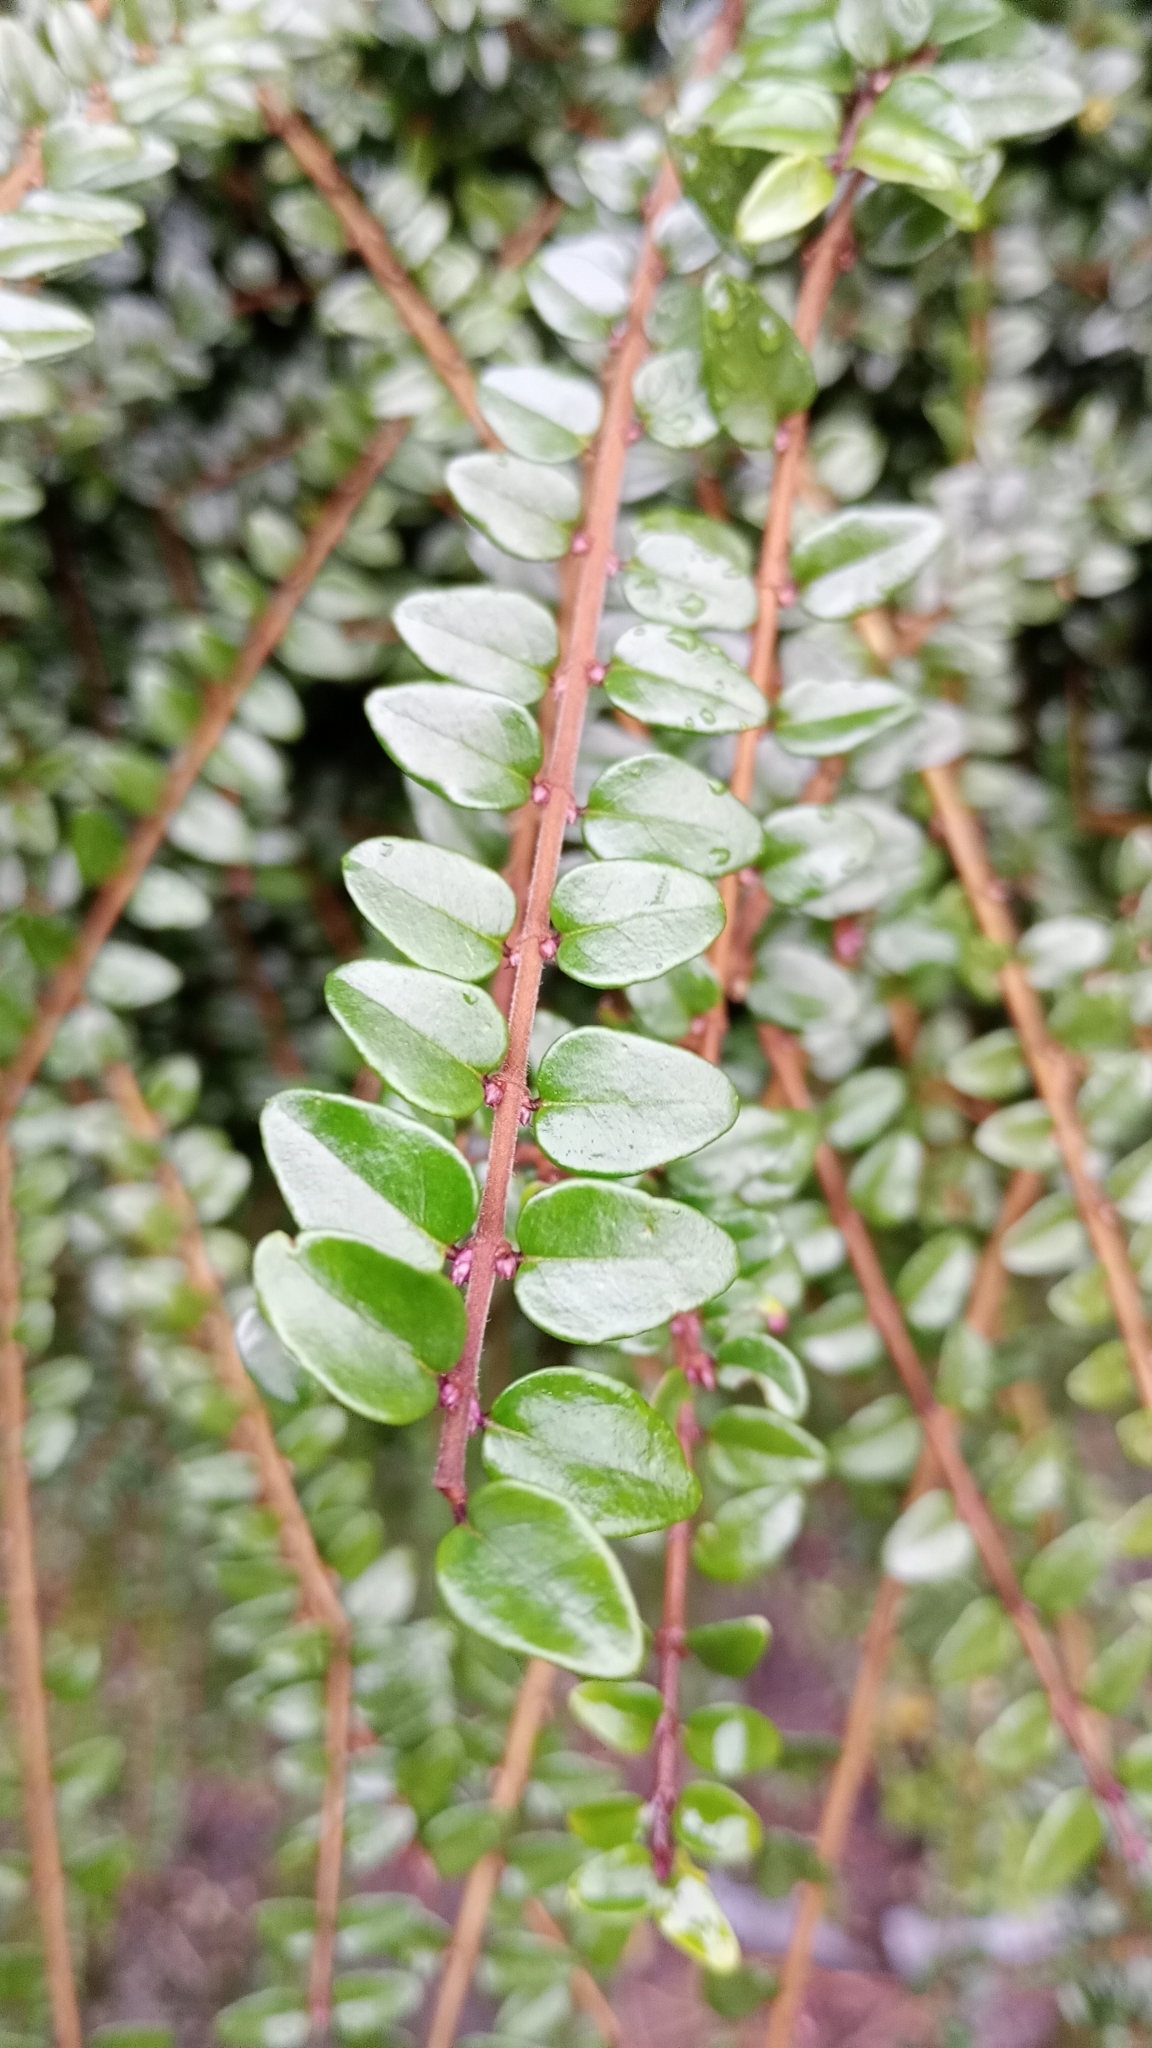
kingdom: Plantae
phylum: Tracheophyta
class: Magnoliopsida
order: Dipsacales
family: Caprifoliaceae
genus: Lonicera
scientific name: Lonicera ligustrina
